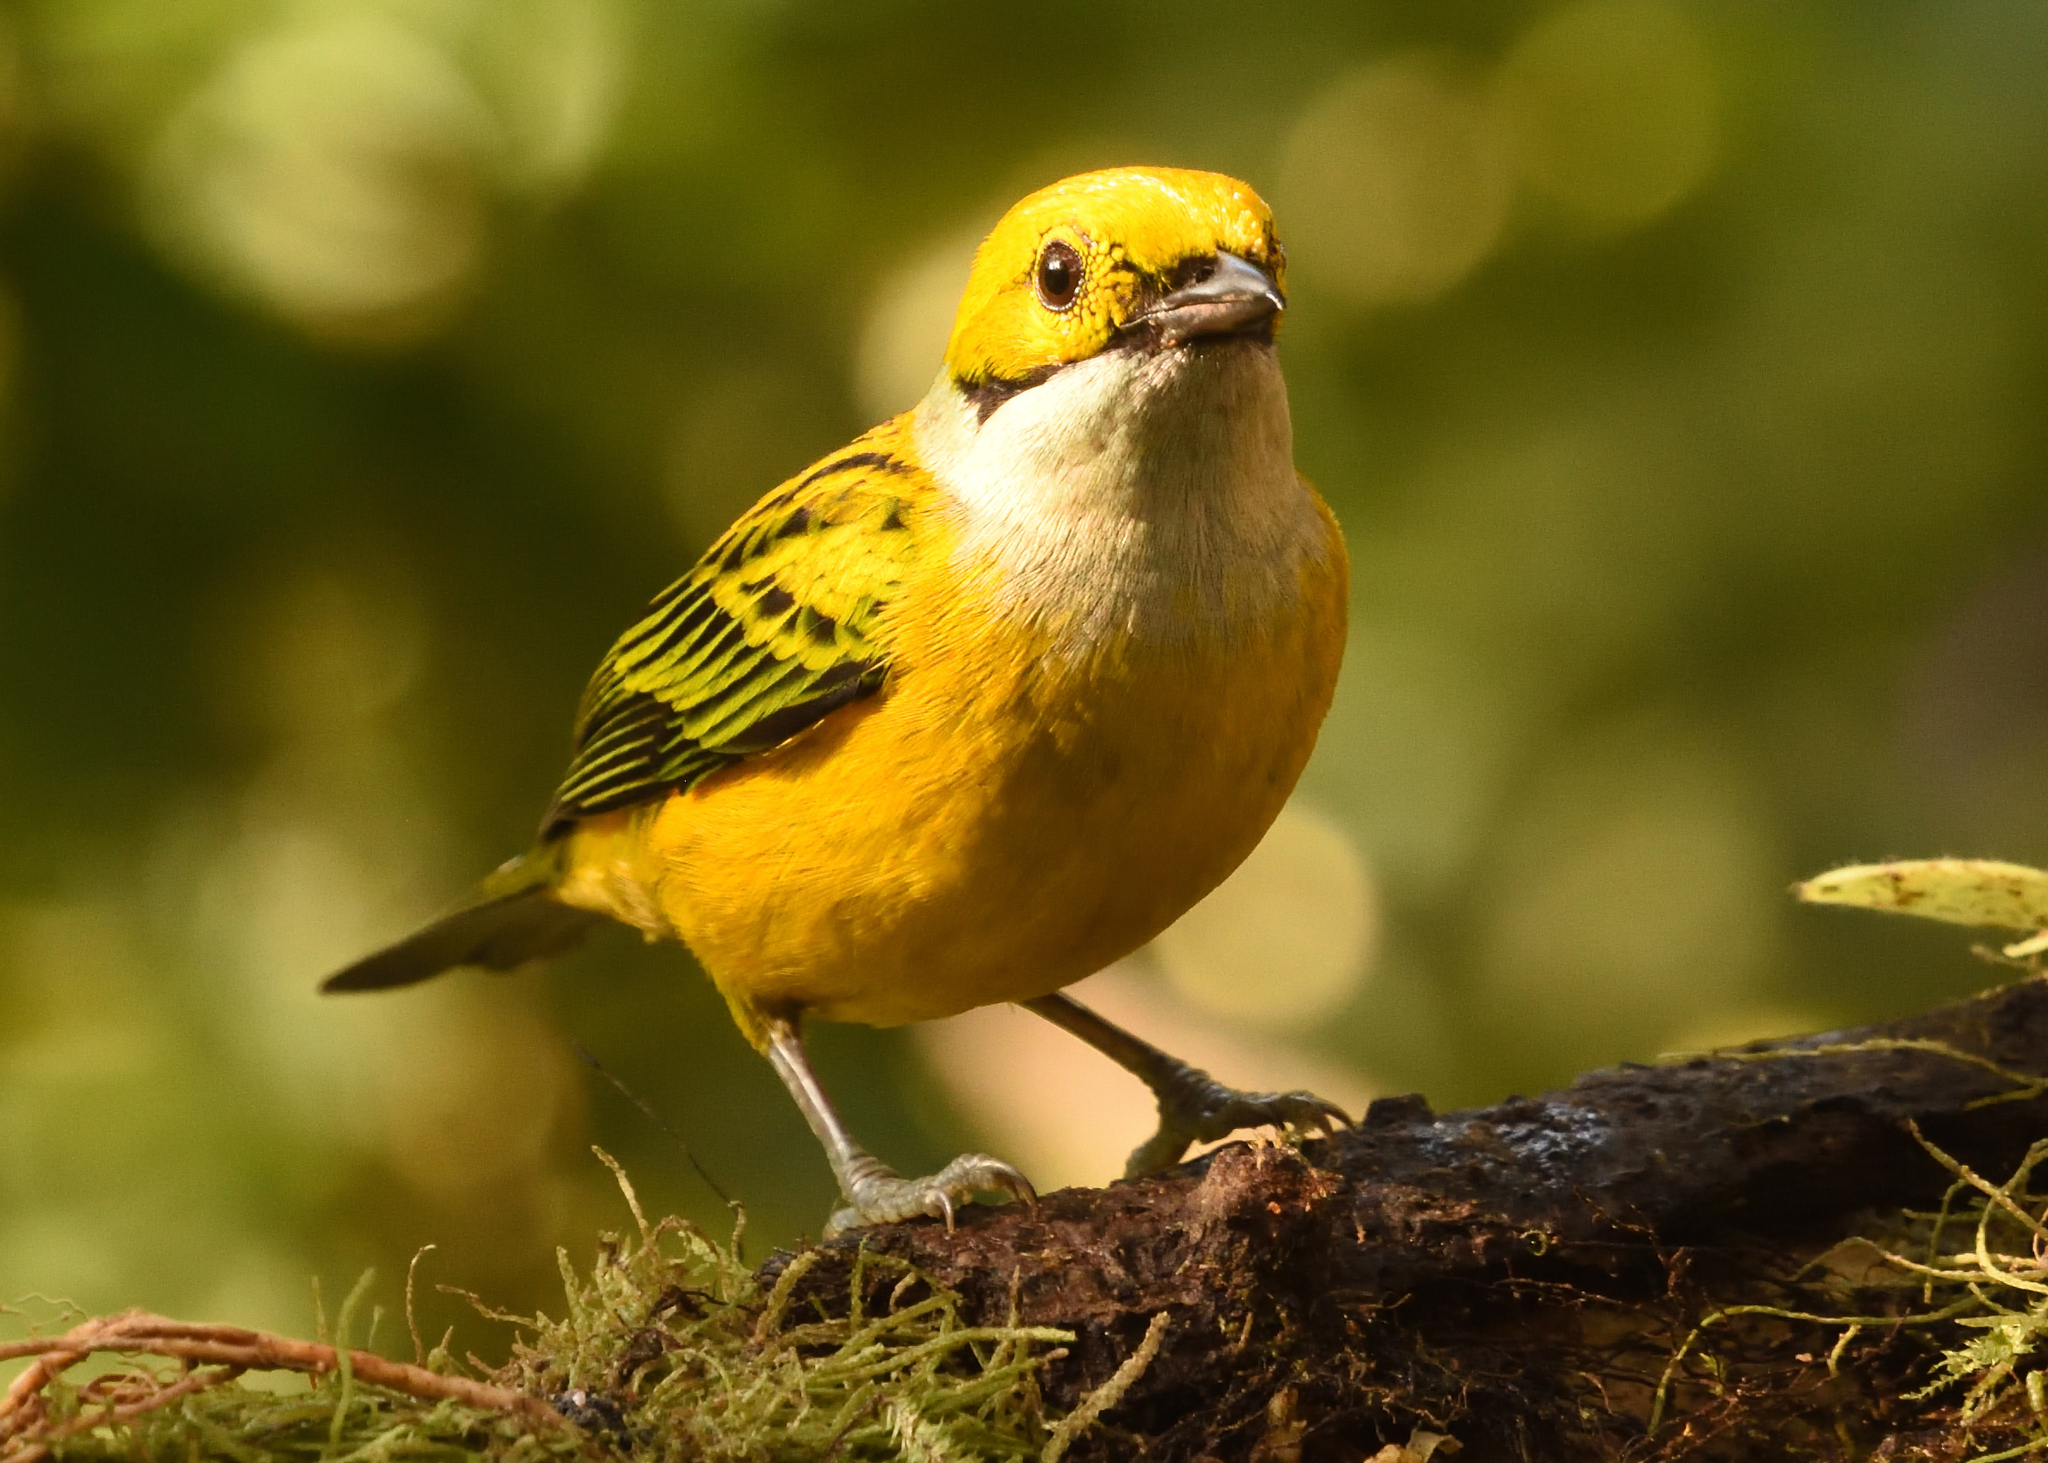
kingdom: Animalia
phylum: Chordata
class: Aves
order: Passeriformes
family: Thraupidae
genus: Tangara
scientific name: Tangara icterocephala
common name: Silver-throated tanager
